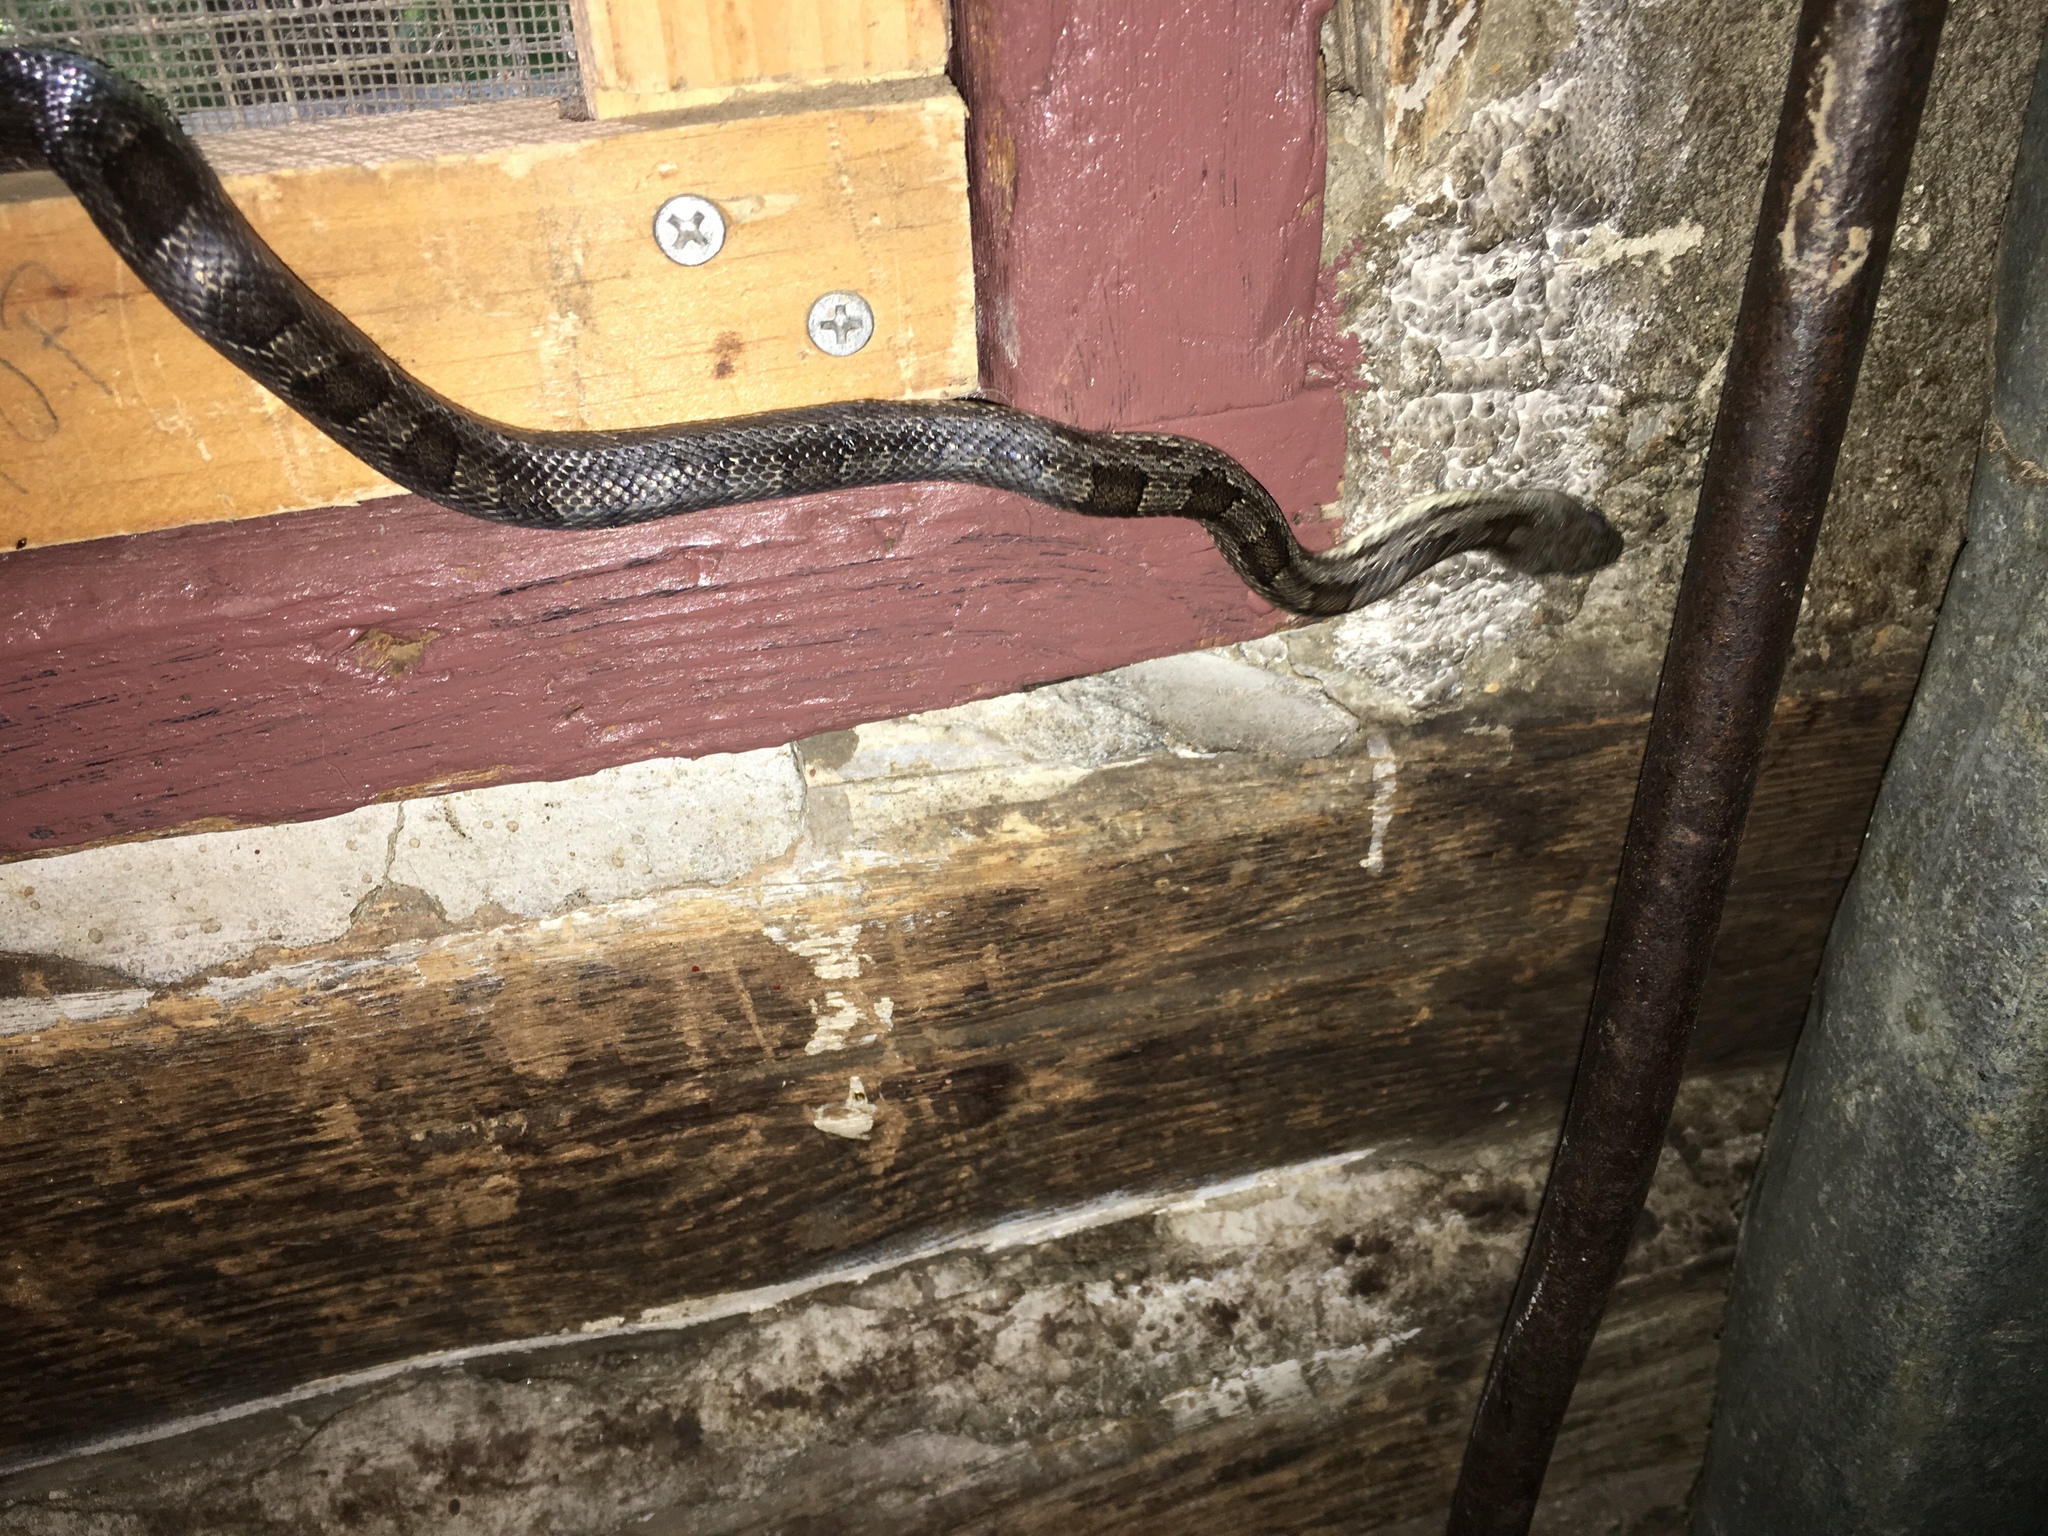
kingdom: Animalia
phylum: Chordata
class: Squamata
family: Colubridae
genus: Pantherophis
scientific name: Pantherophis alleghaniensis
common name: Eastern rat snake
